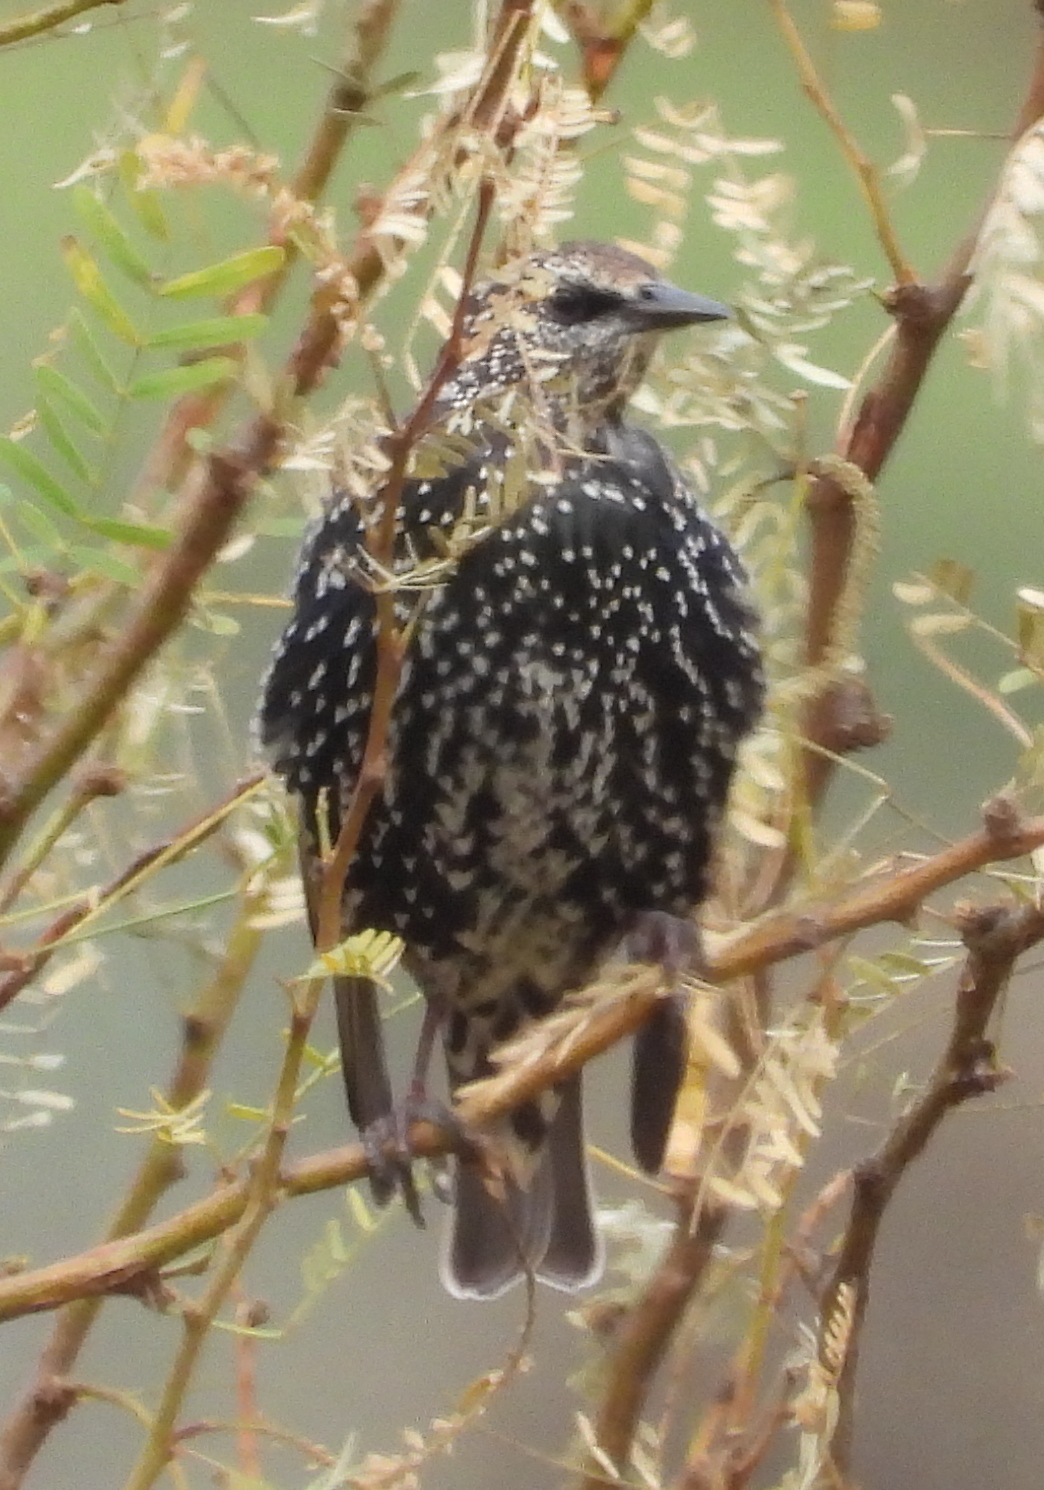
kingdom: Animalia
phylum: Chordata
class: Aves
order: Passeriformes
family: Sturnidae
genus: Sturnus
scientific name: Sturnus vulgaris
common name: Common starling
